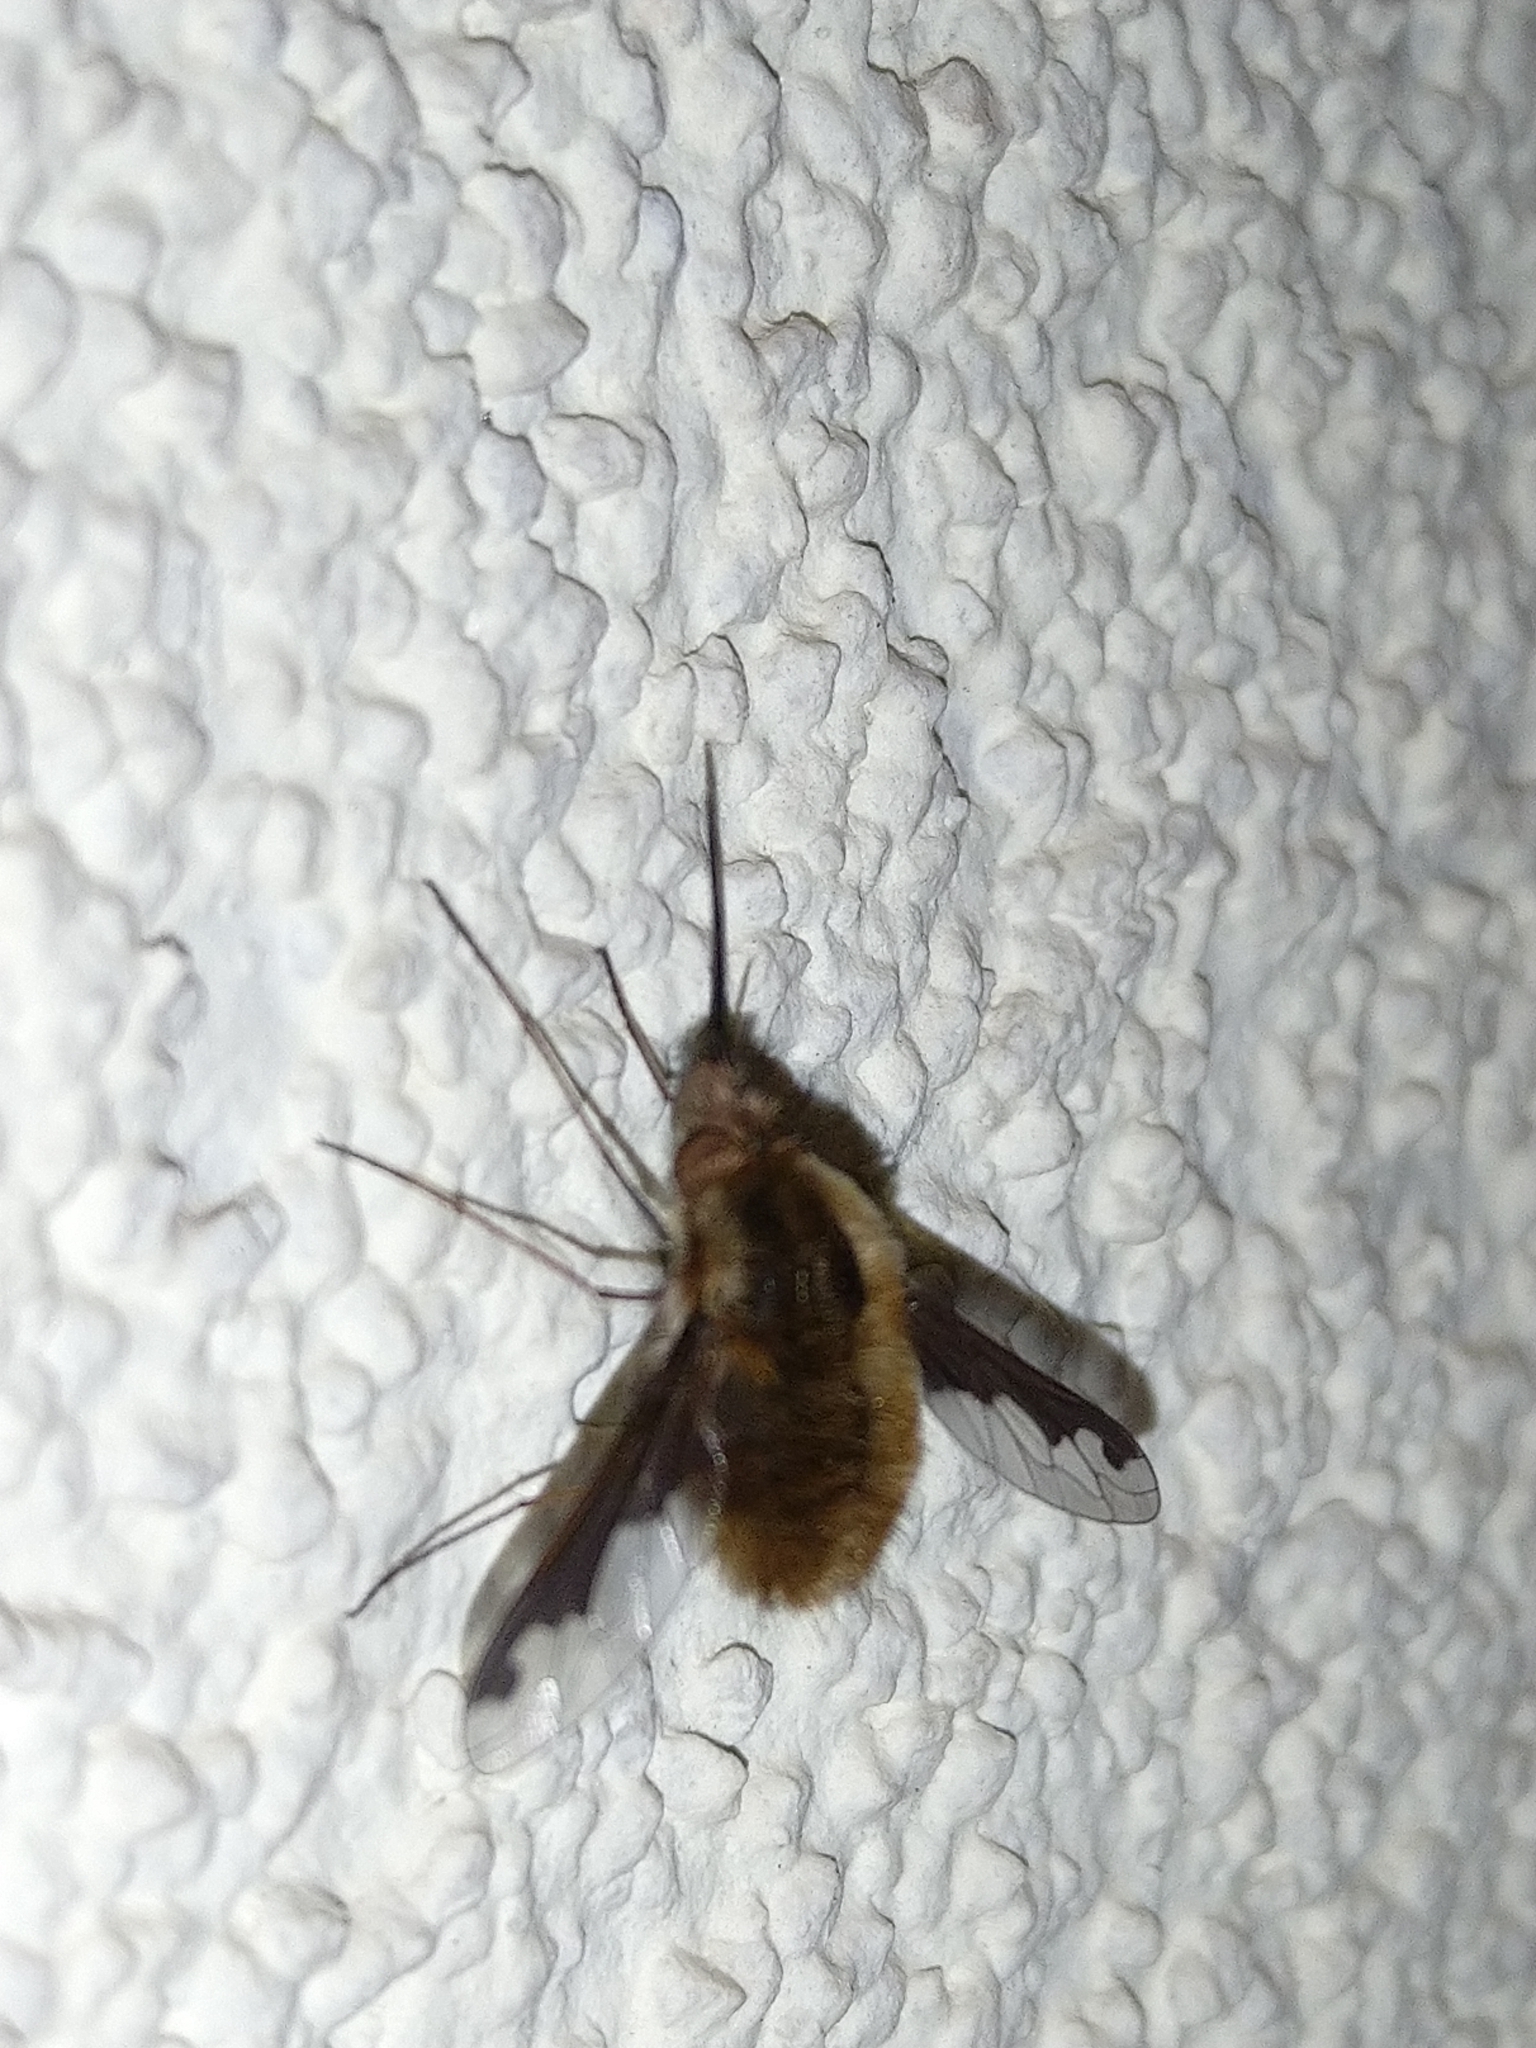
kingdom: Animalia
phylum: Arthropoda
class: Insecta
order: Diptera
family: Bombyliidae
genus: Bombylius
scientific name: Bombylius major
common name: Bee fly
